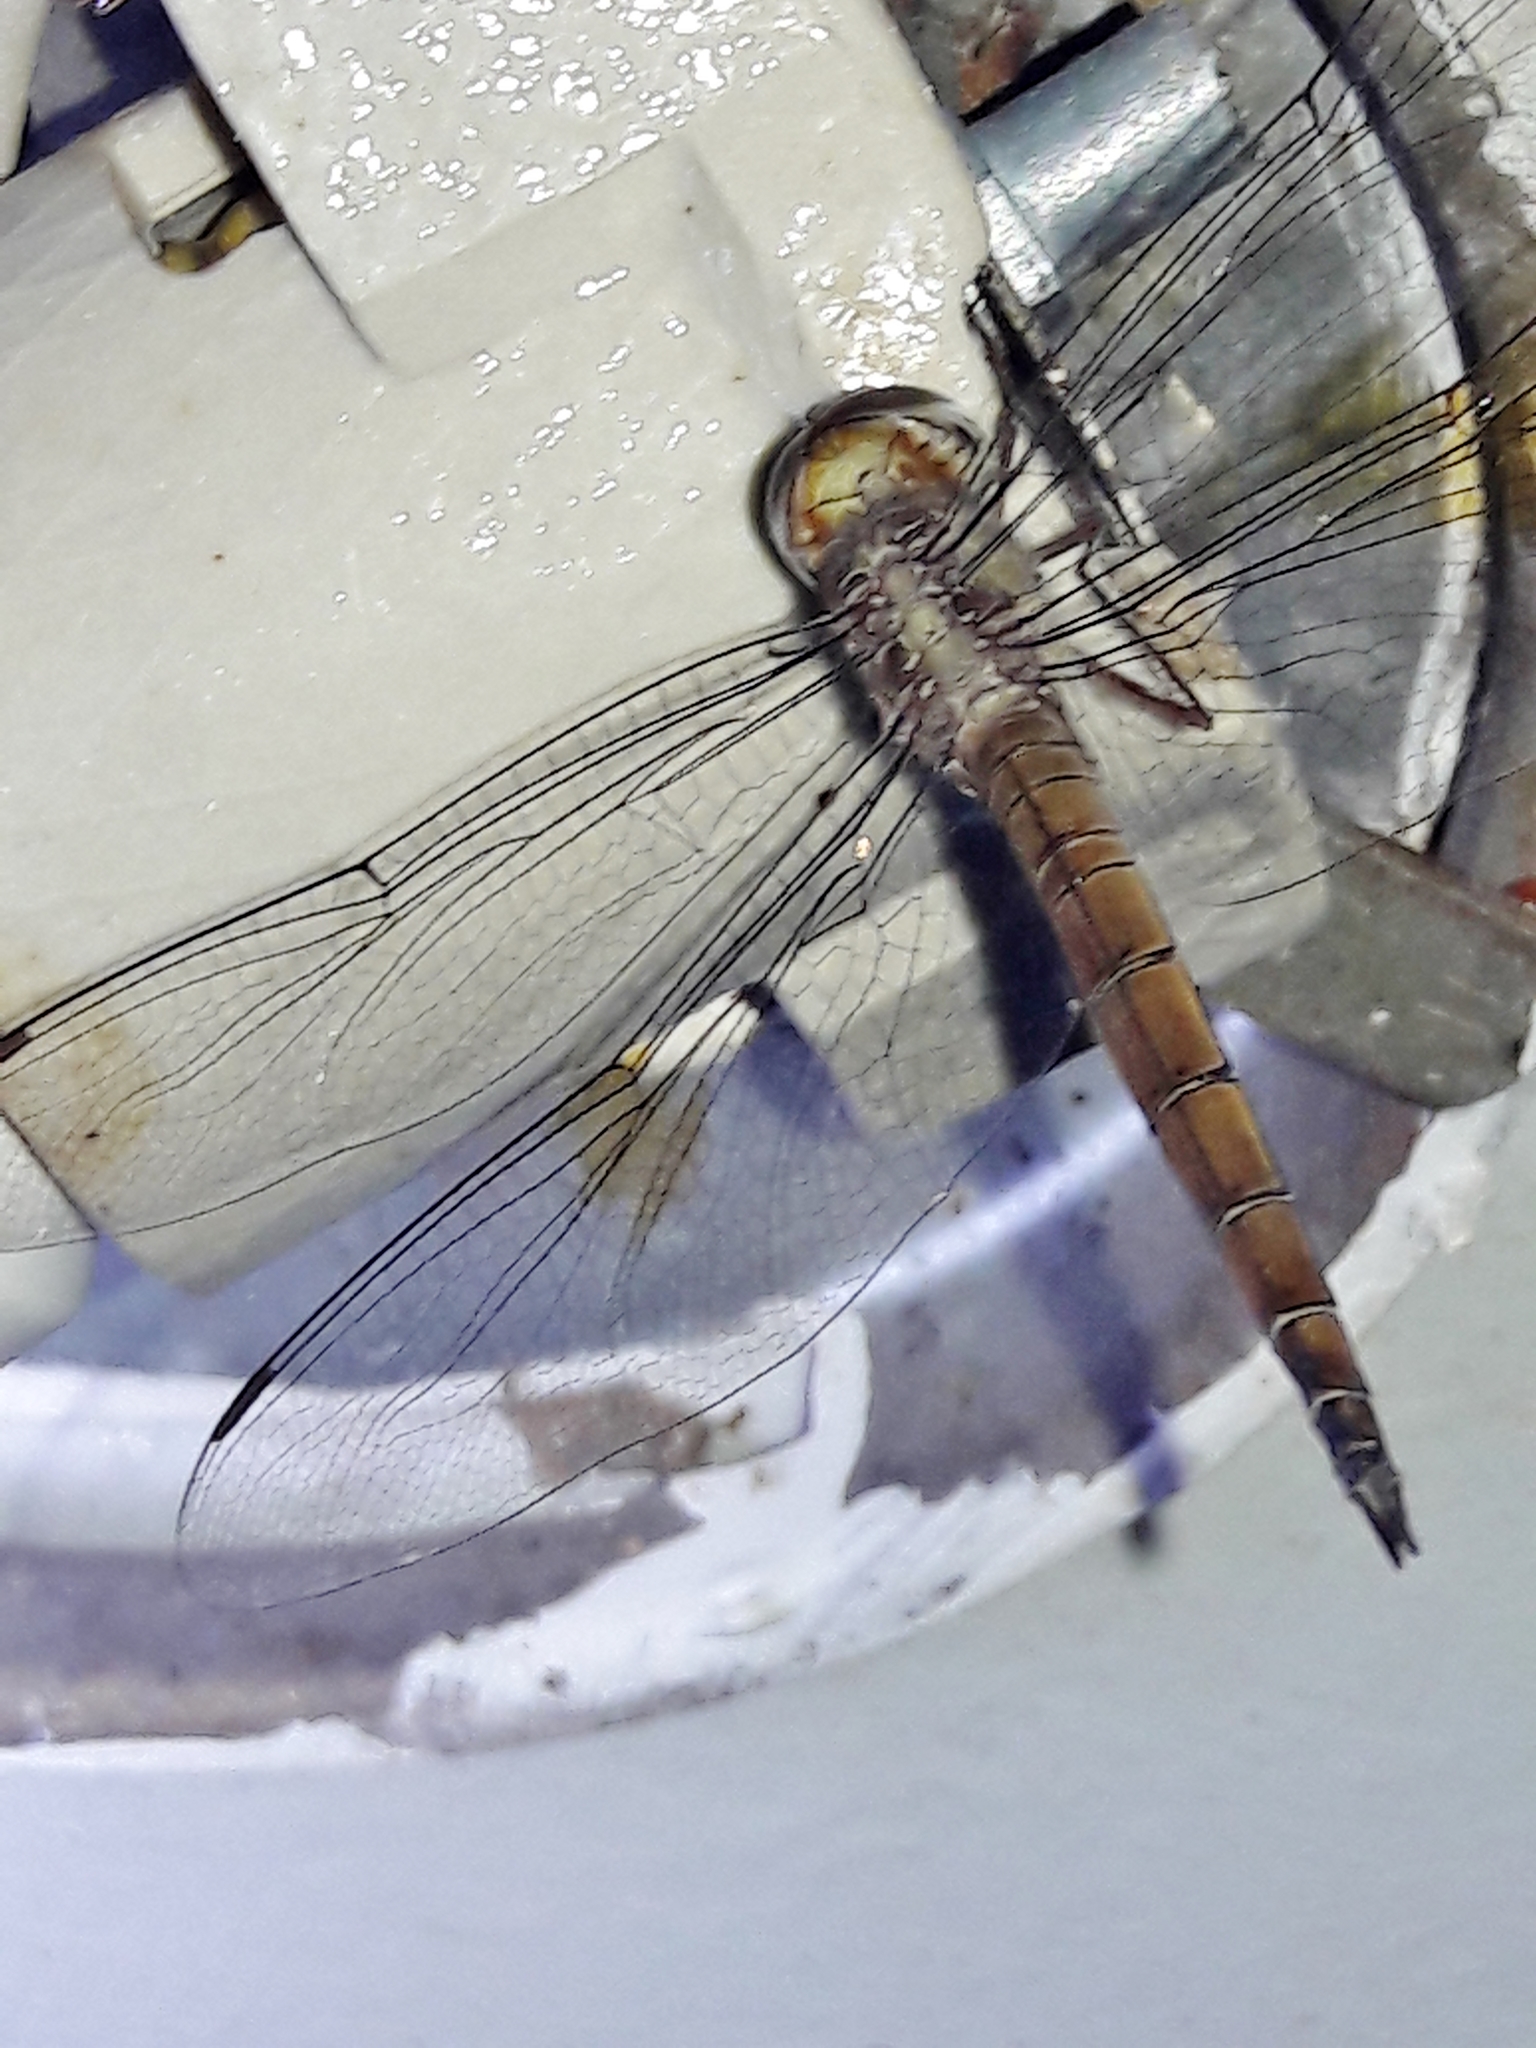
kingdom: Animalia
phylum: Arthropoda
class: Insecta
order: Odonata
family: Libellulidae
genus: Tholymis
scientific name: Tholymis citrina
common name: Evening skimmer
